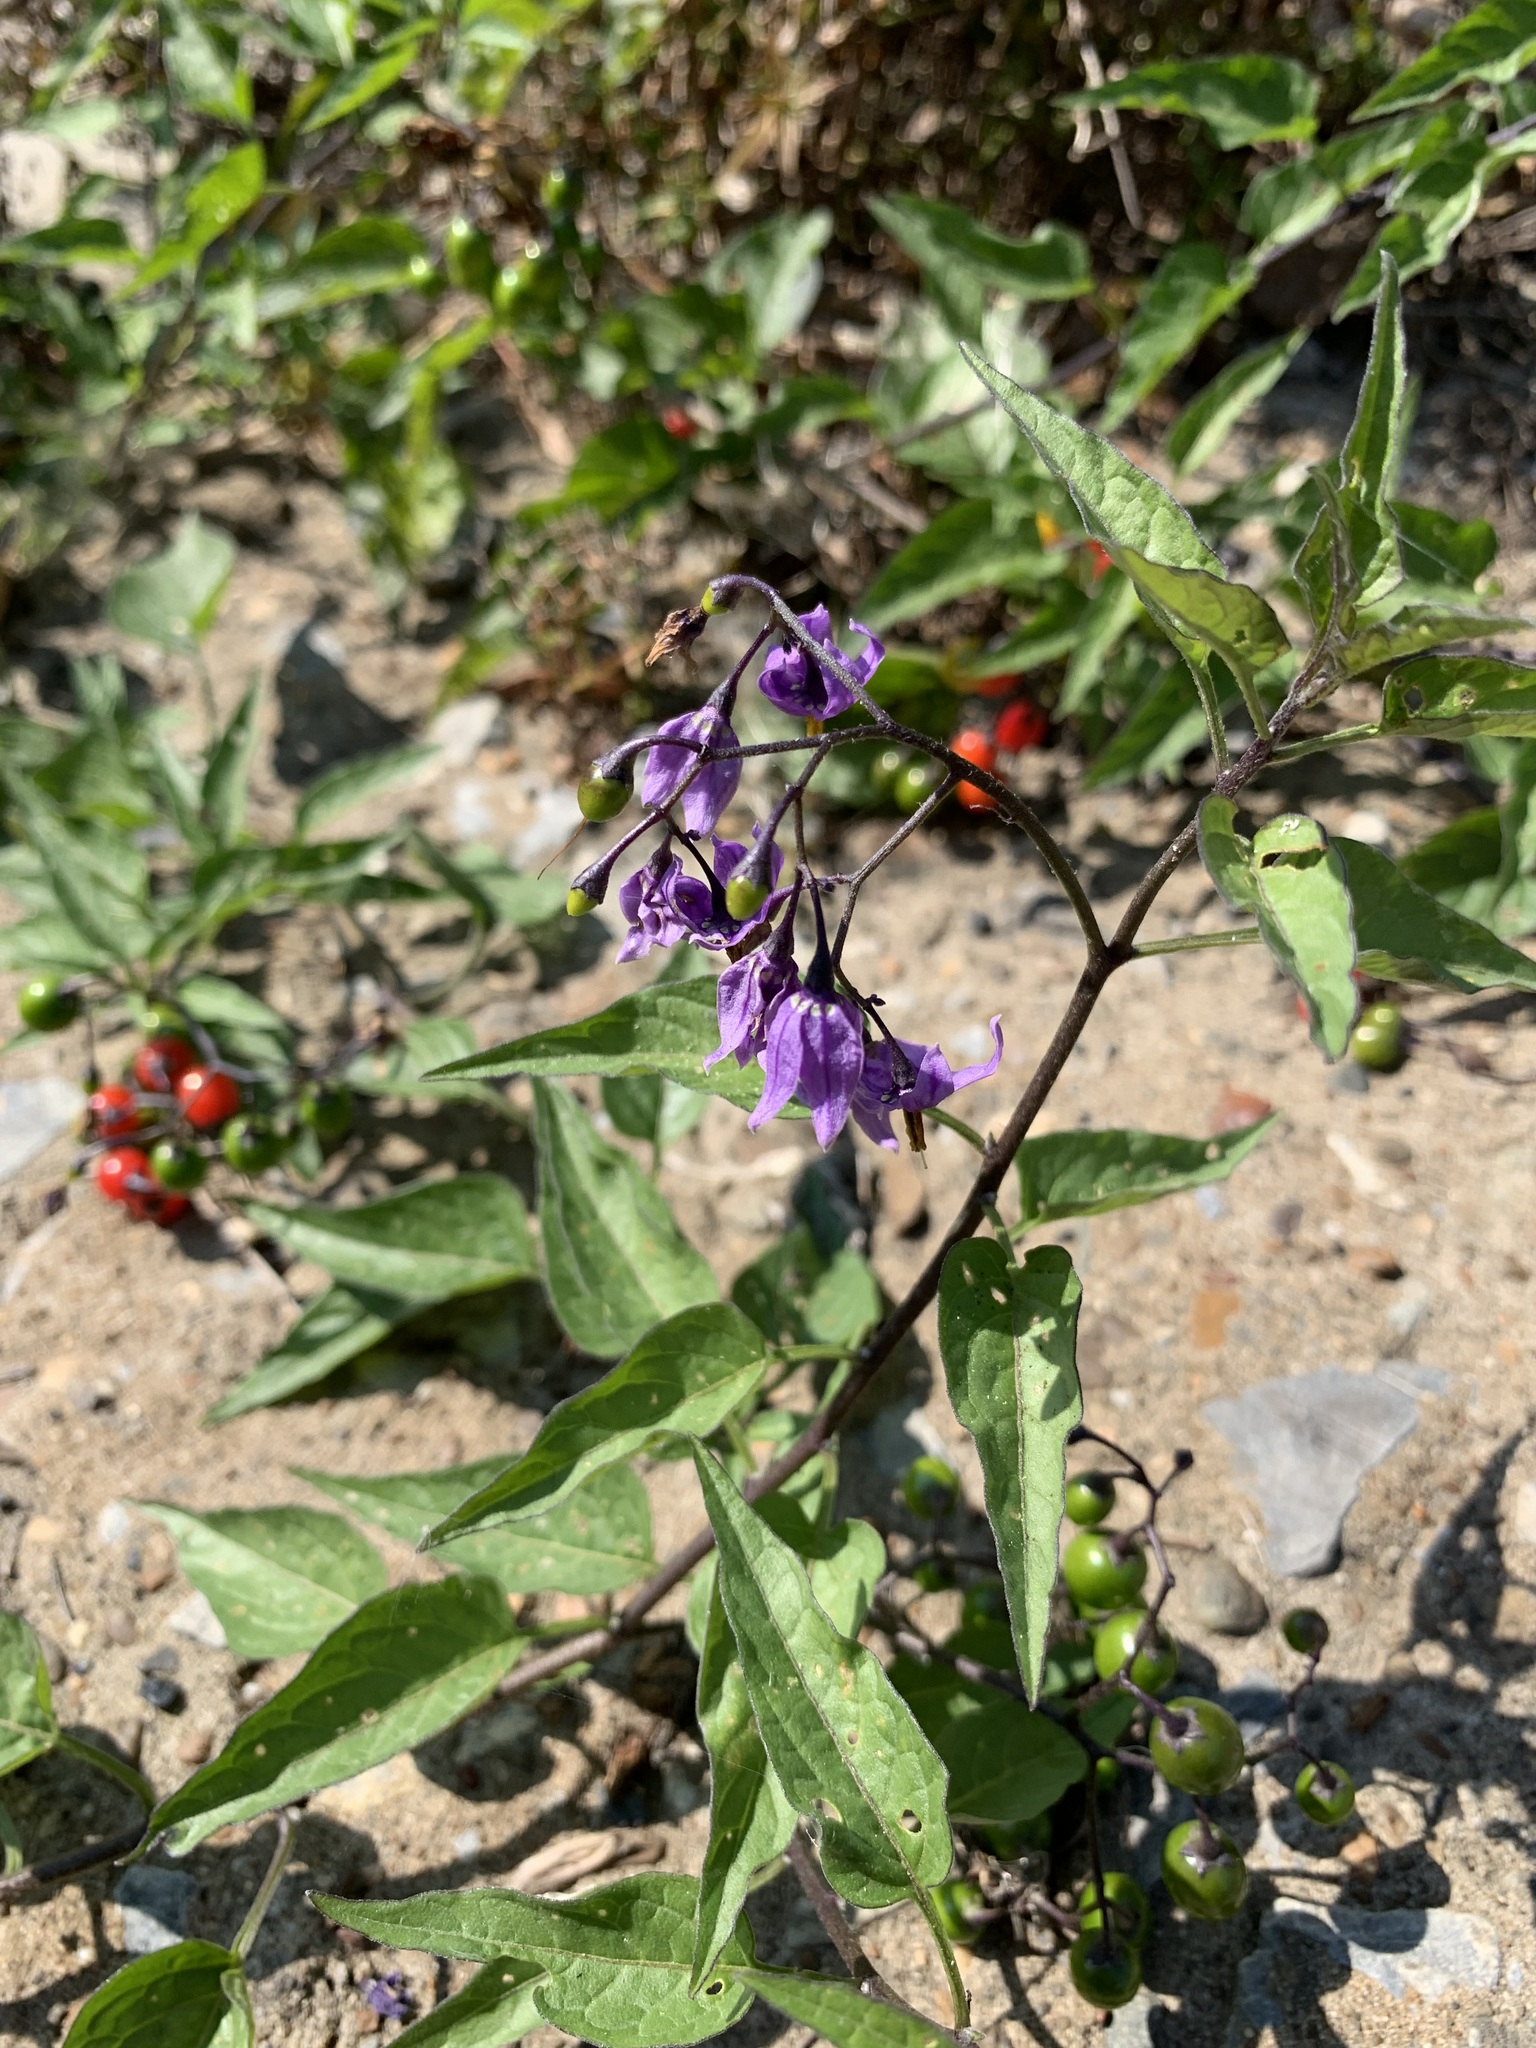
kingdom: Plantae
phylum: Tracheophyta
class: Magnoliopsida
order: Solanales
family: Solanaceae
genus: Solanum
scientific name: Solanum dulcamara
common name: Climbing nightshade
